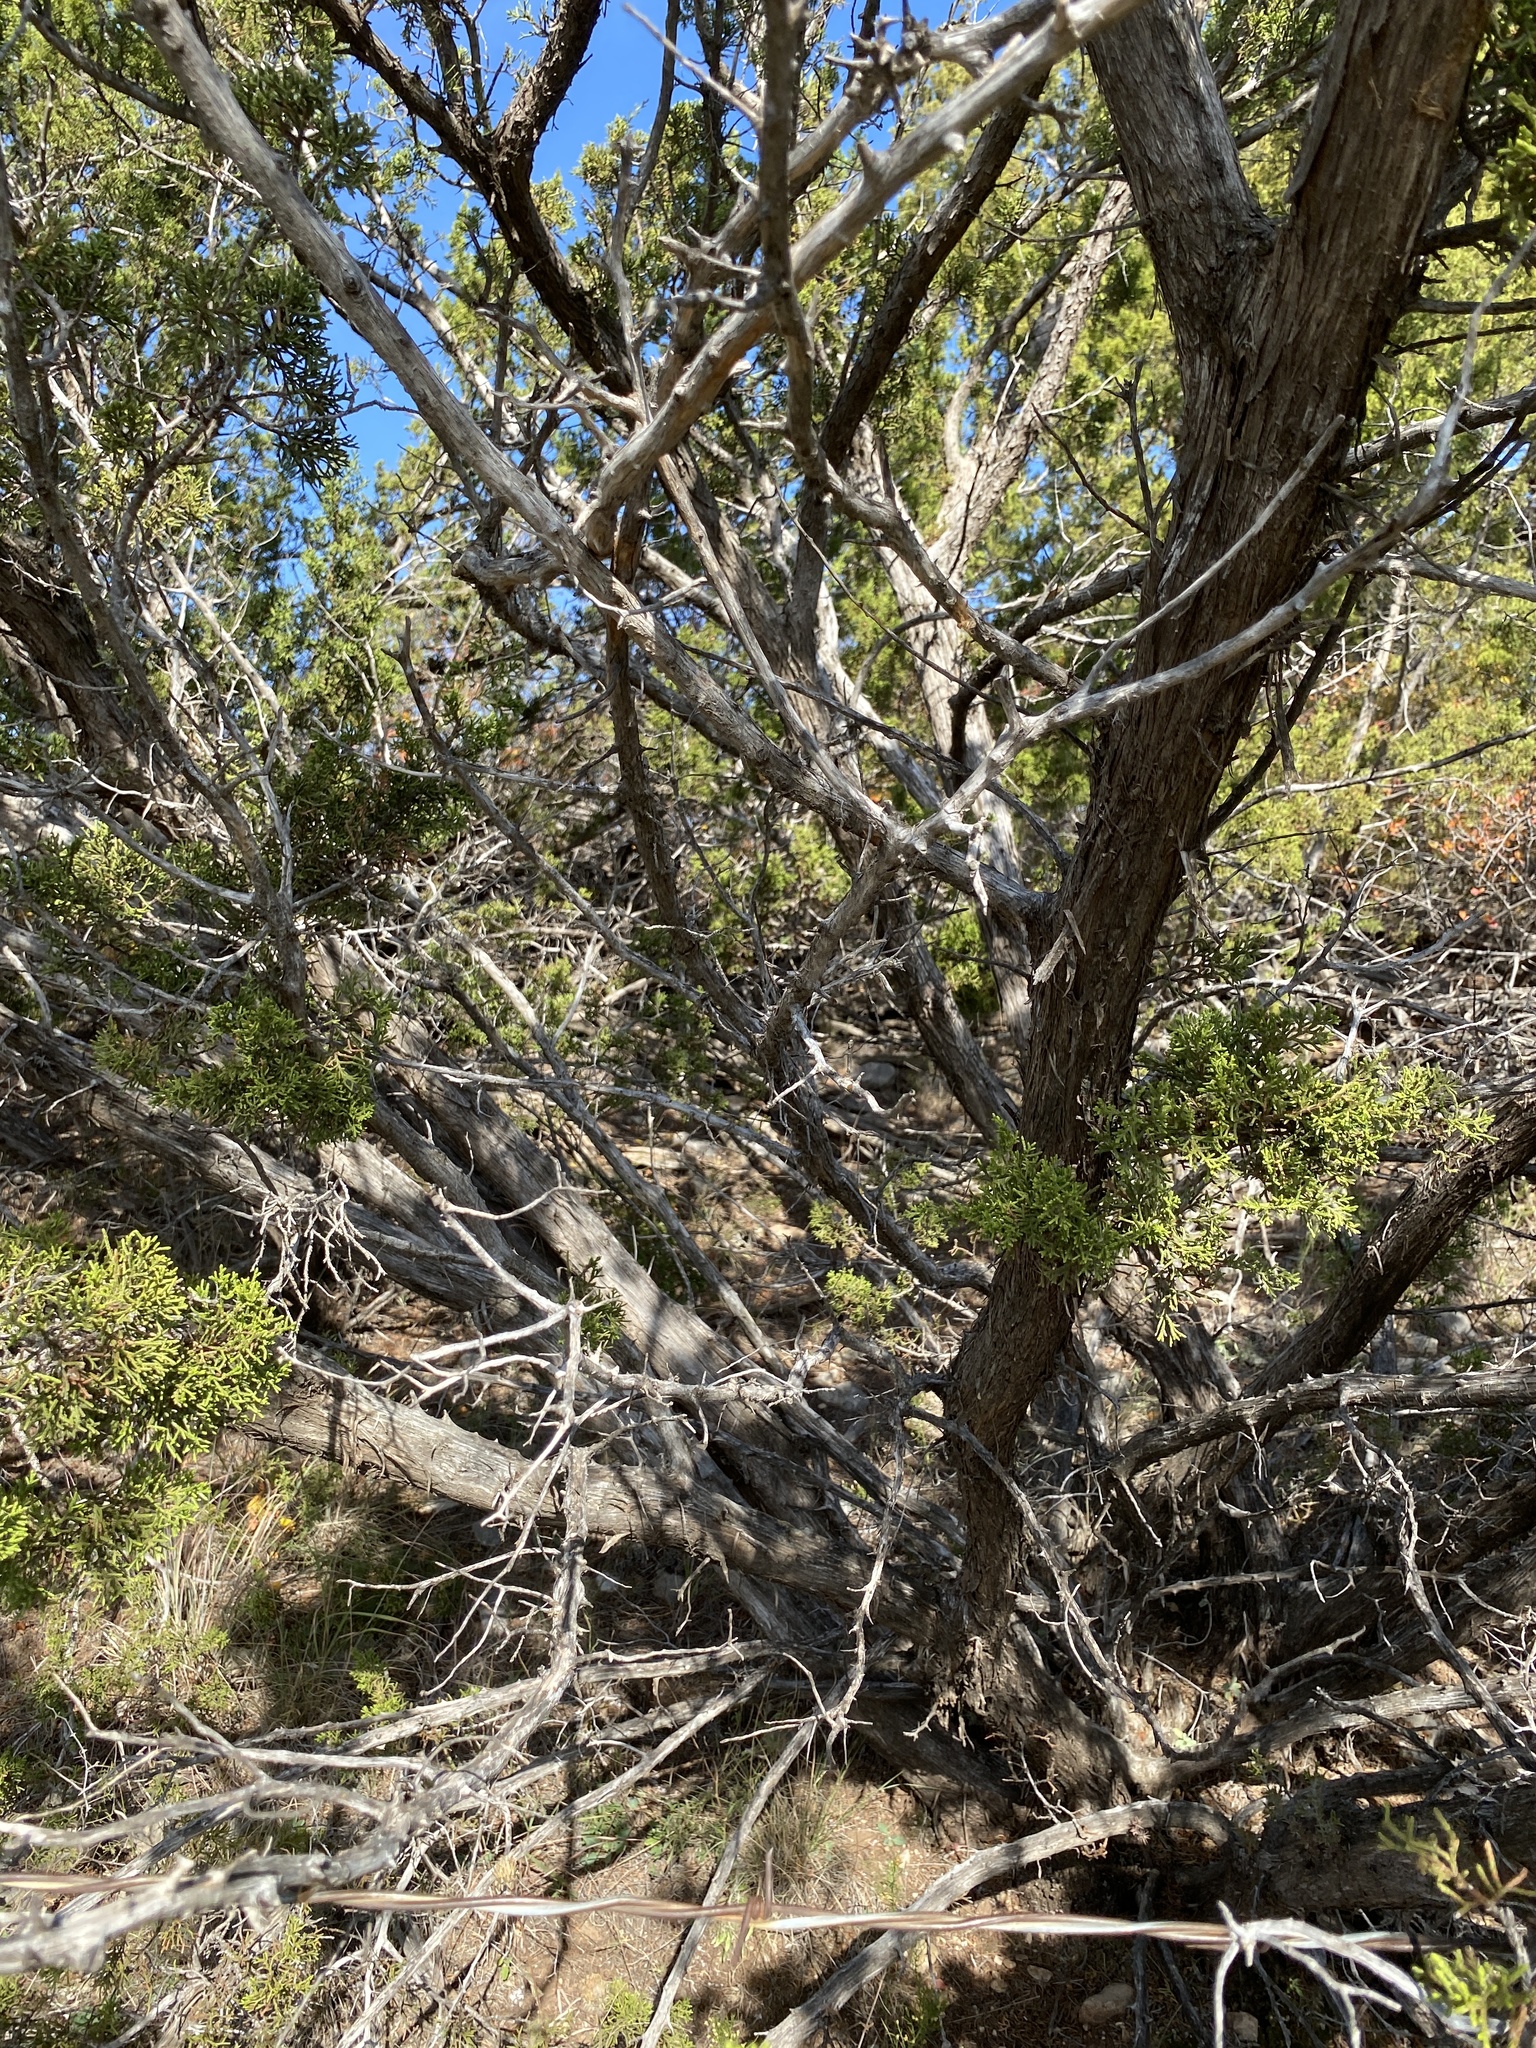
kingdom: Plantae
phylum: Tracheophyta
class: Pinopsida
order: Pinales
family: Cupressaceae
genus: Juniperus
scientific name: Juniperus pinchotii
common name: Pinchot juniper
